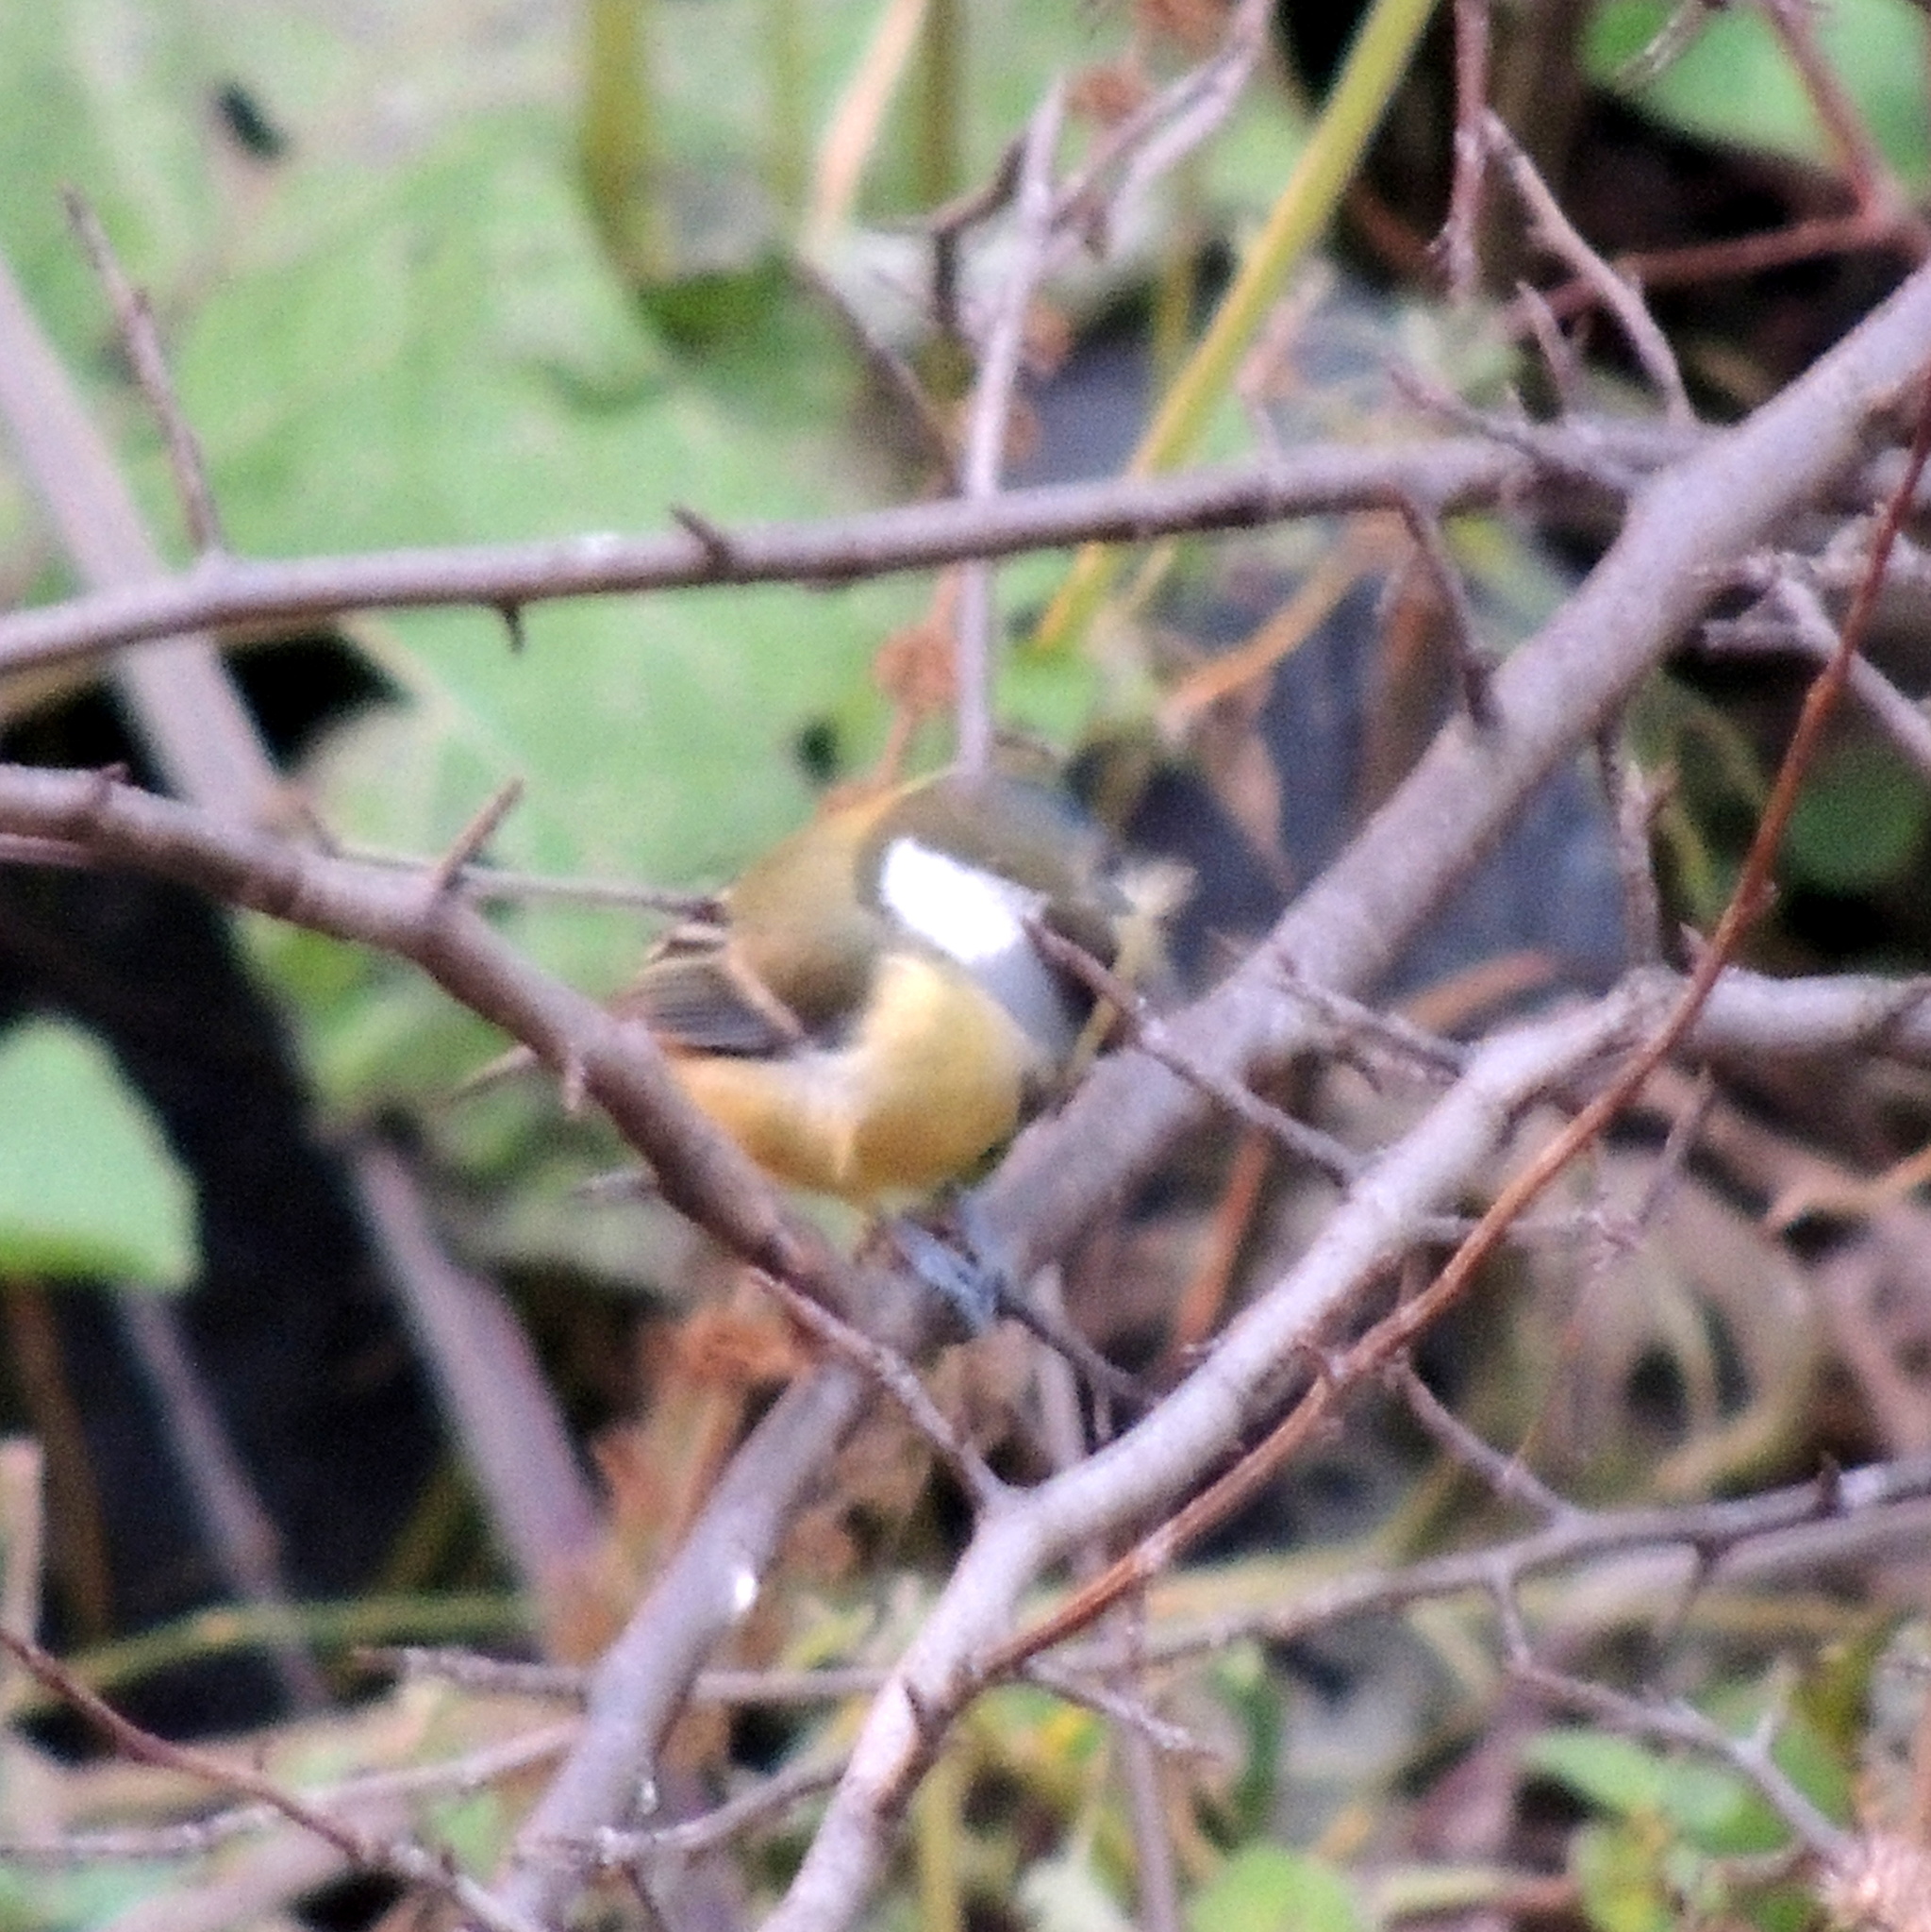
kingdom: Animalia
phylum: Chordata
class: Aves
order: Passeriformes
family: Paridae
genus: Parus
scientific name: Parus major
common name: Great tit
